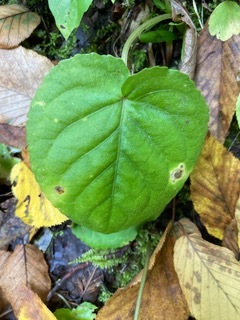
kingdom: Plantae
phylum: Tracheophyta
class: Magnoliopsida
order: Malpighiales
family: Violaceae
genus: Viola
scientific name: Viola rotundifolia
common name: Early yellow violet
